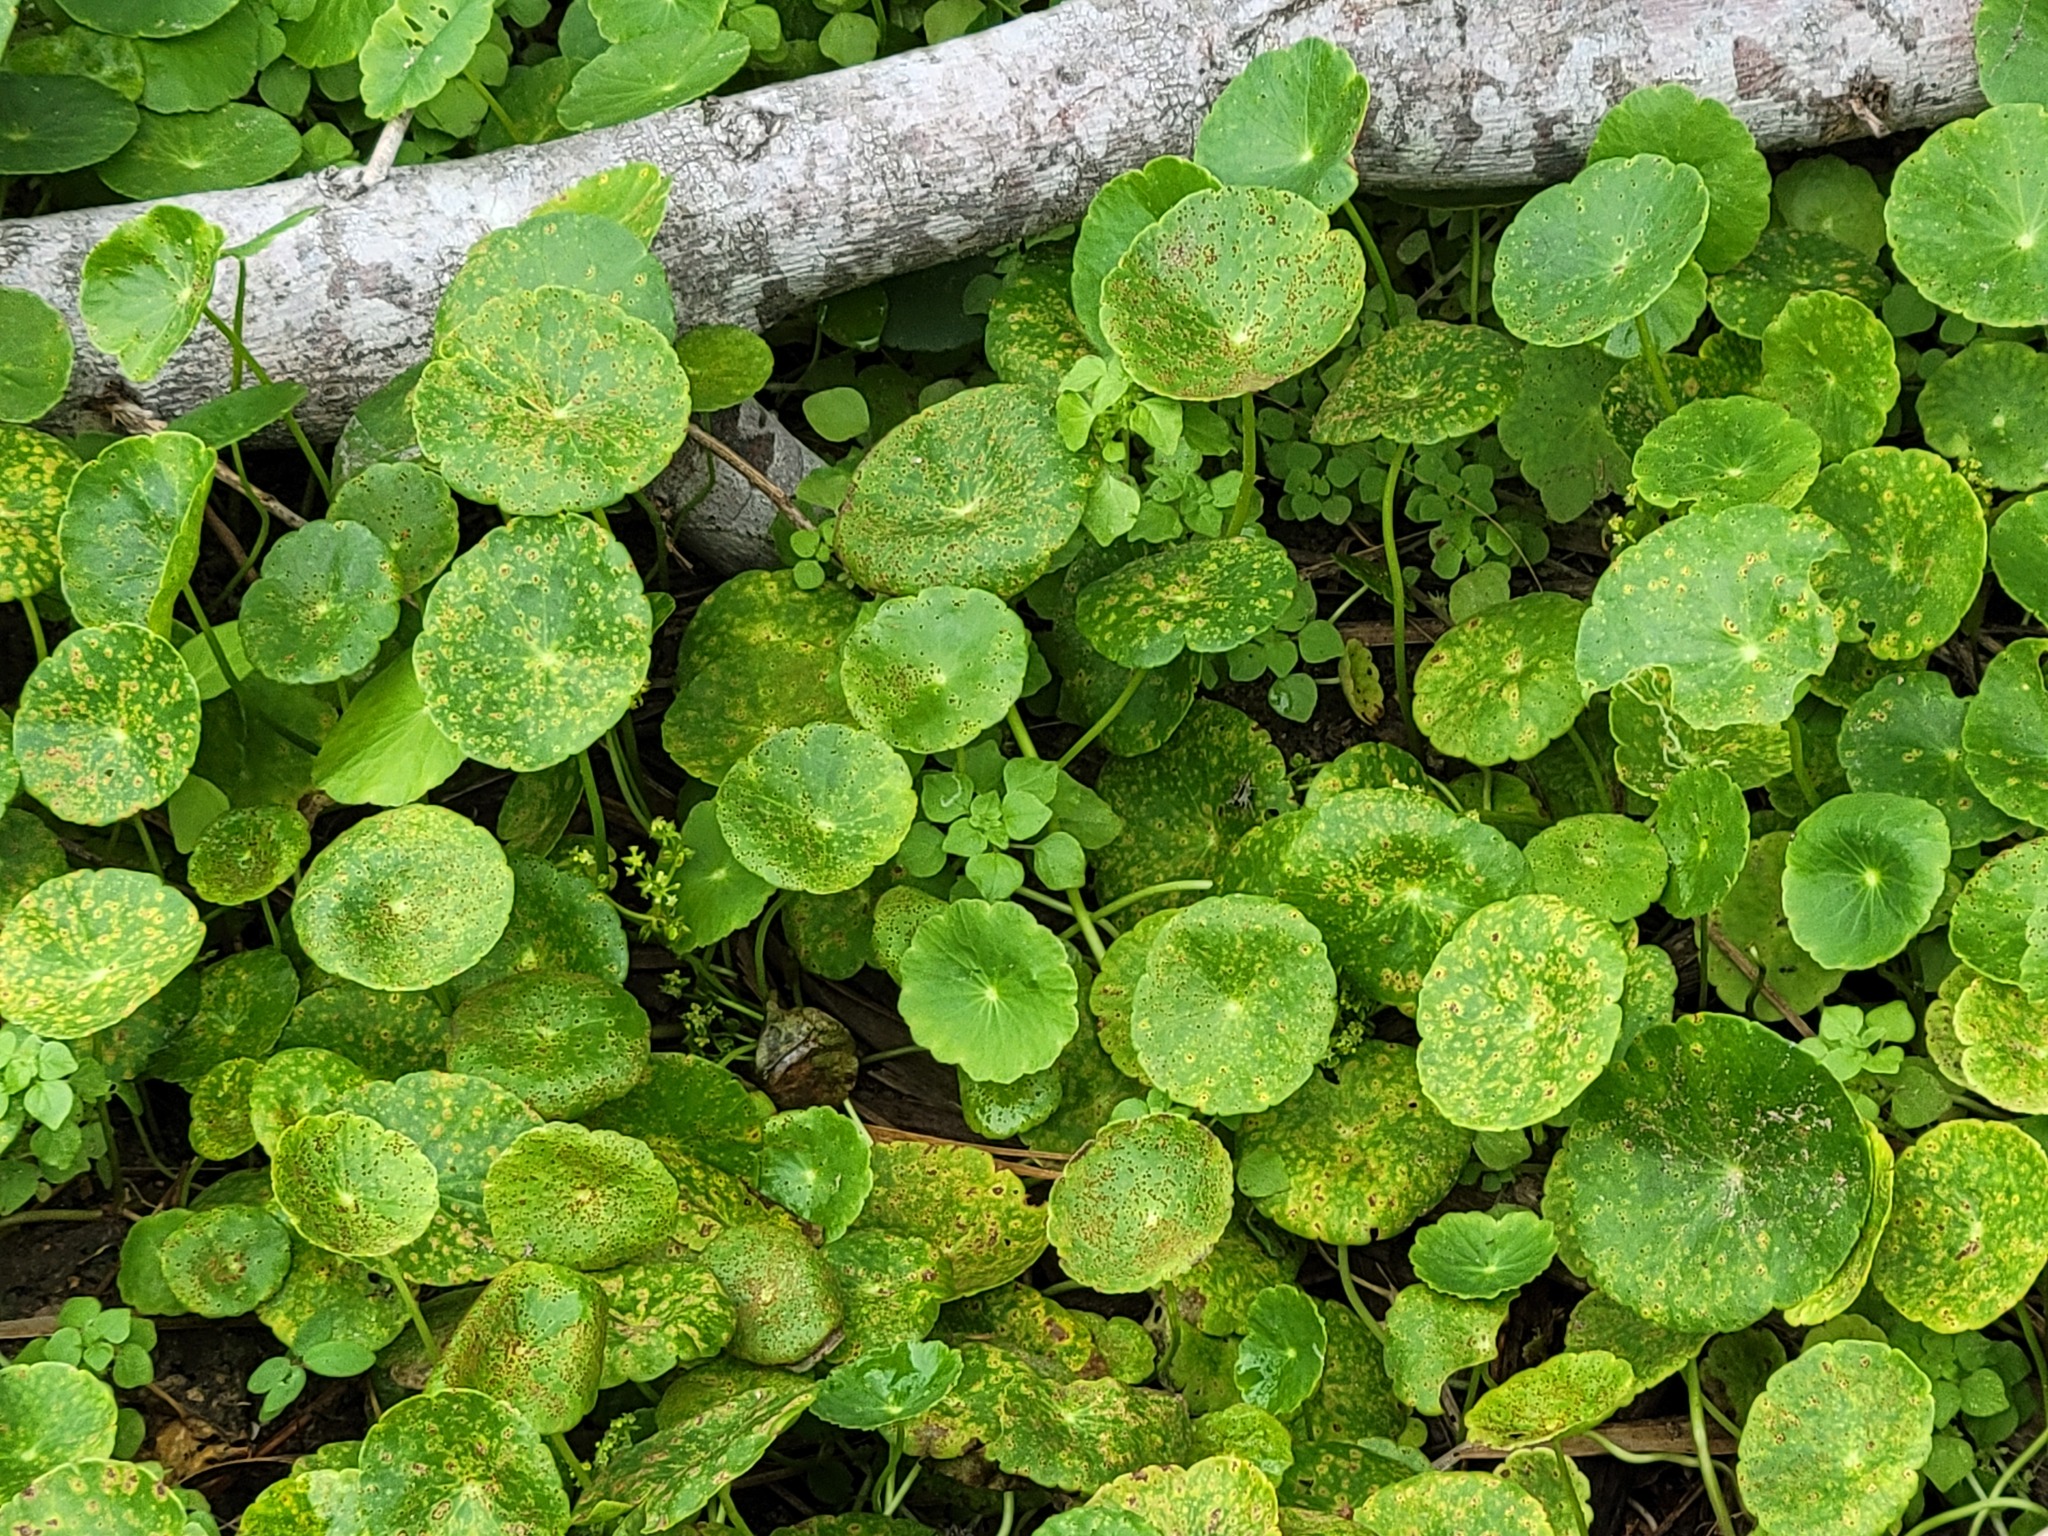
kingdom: Plantae
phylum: Tracheophyta
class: Magnoliopsida
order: Apiales
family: Araliaceae
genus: Hydrocotyle
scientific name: Hydrocotyle bonariensis
